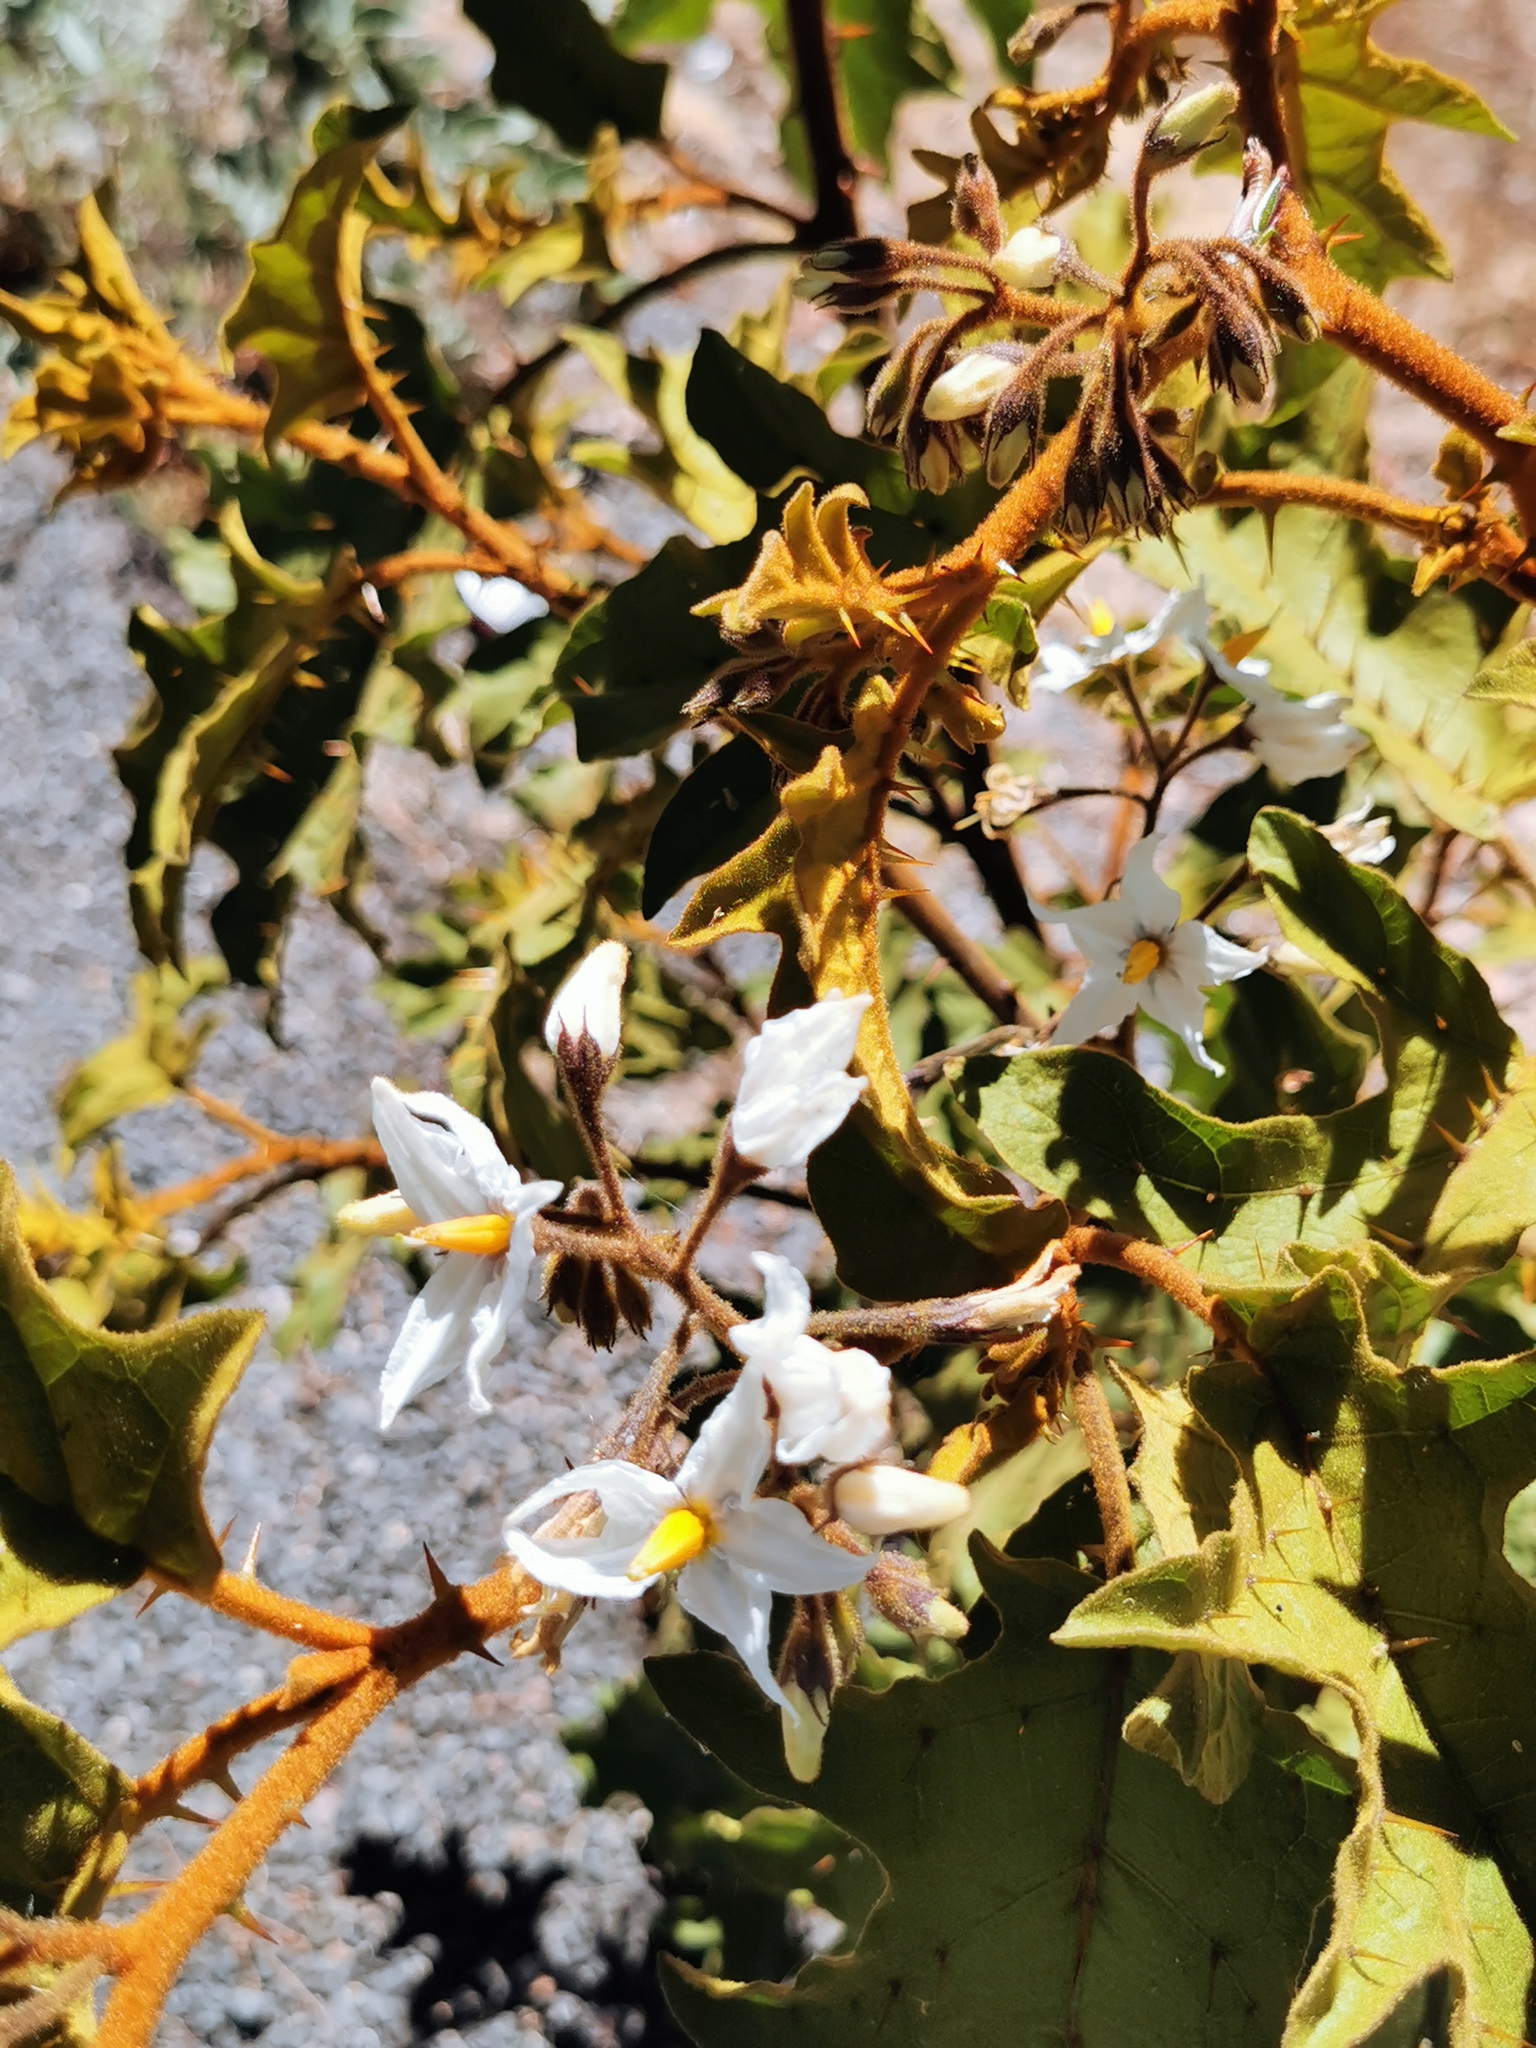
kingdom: Plantae
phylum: Tracheophyta
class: Magnoliopsida
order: Solanales
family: Solanaceae
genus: Solanum
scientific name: Solanum ferrugineum
